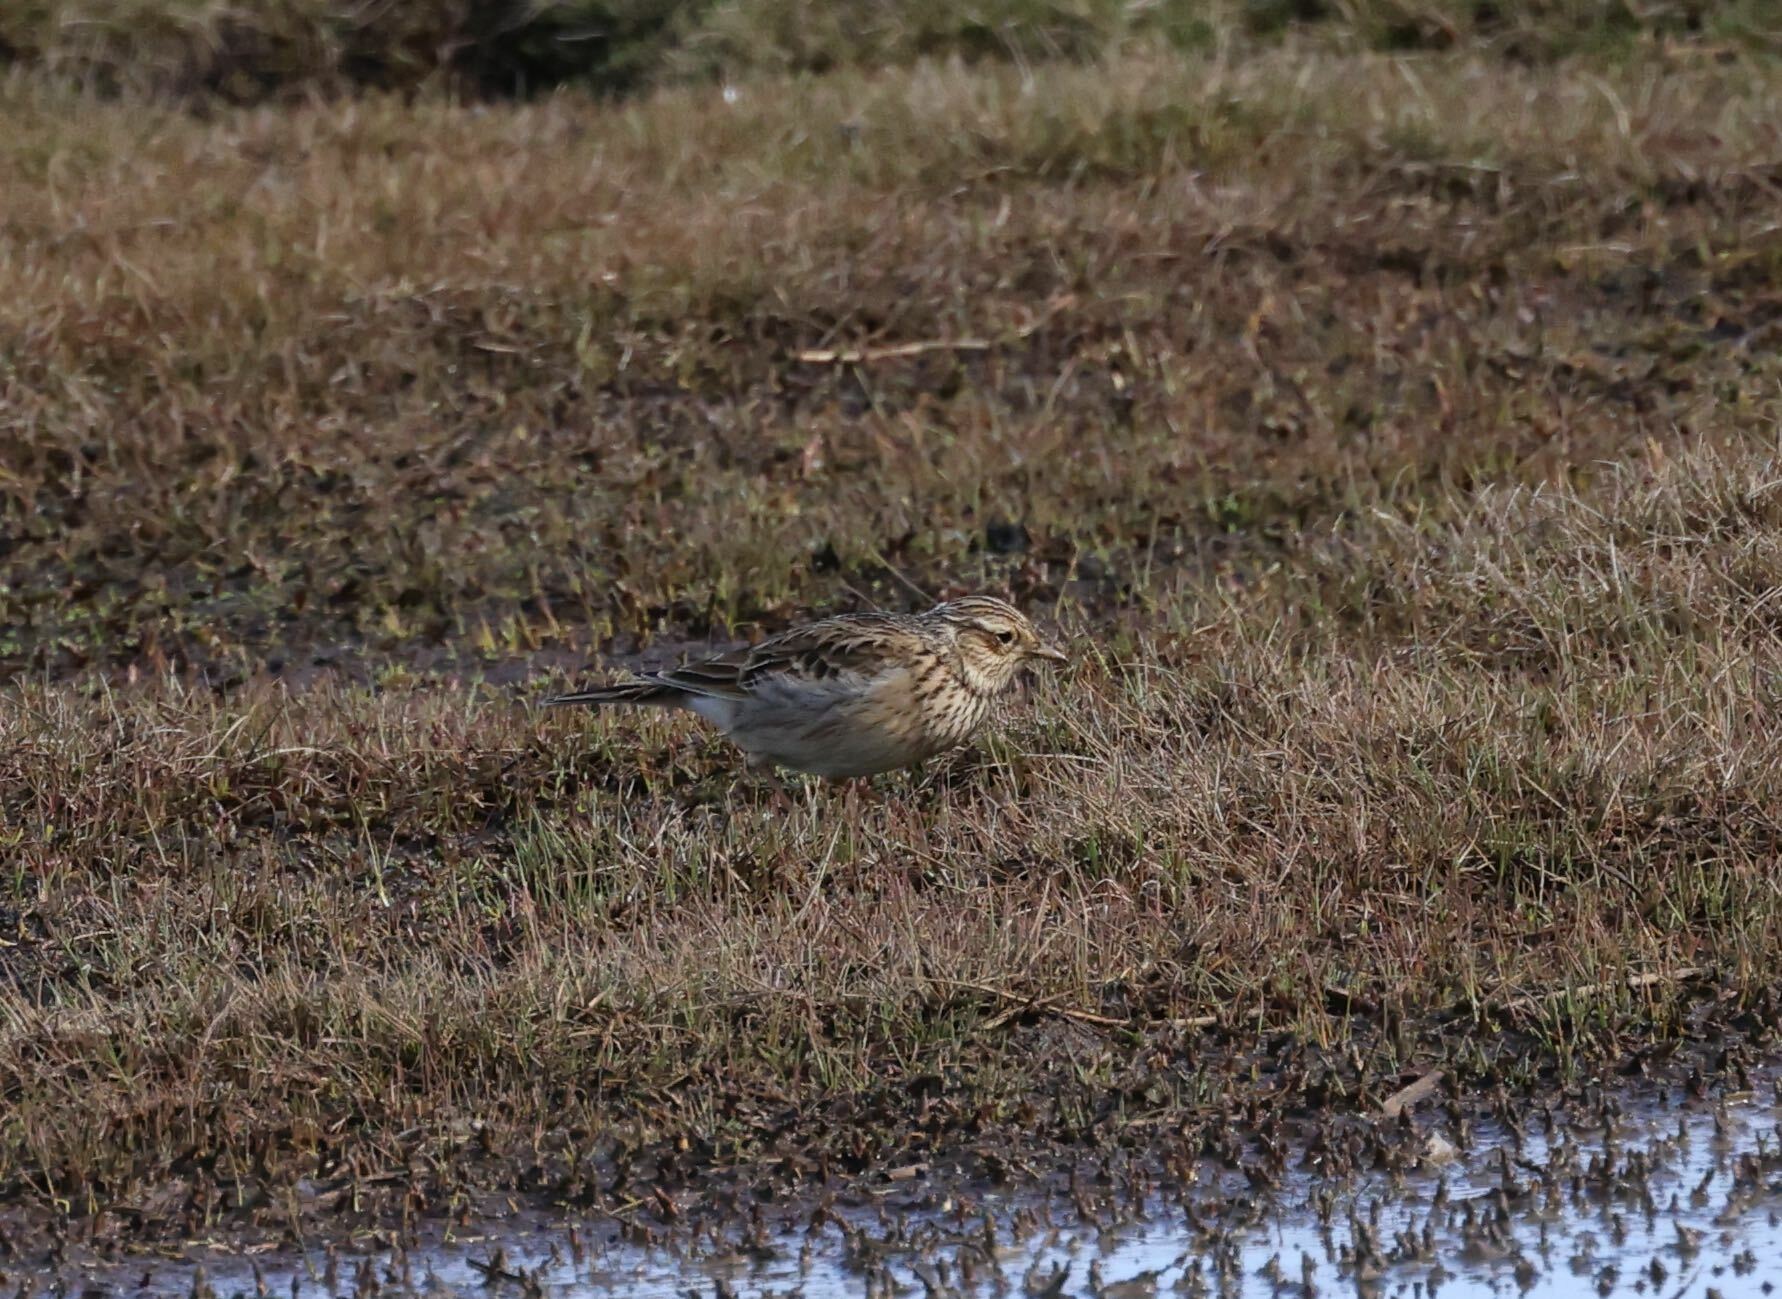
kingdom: Animalia
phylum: Chordata
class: Aves
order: Passeriformes
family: Alaudidae
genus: Alauda
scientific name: Alauda arvensis
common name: Eurasian skylark
